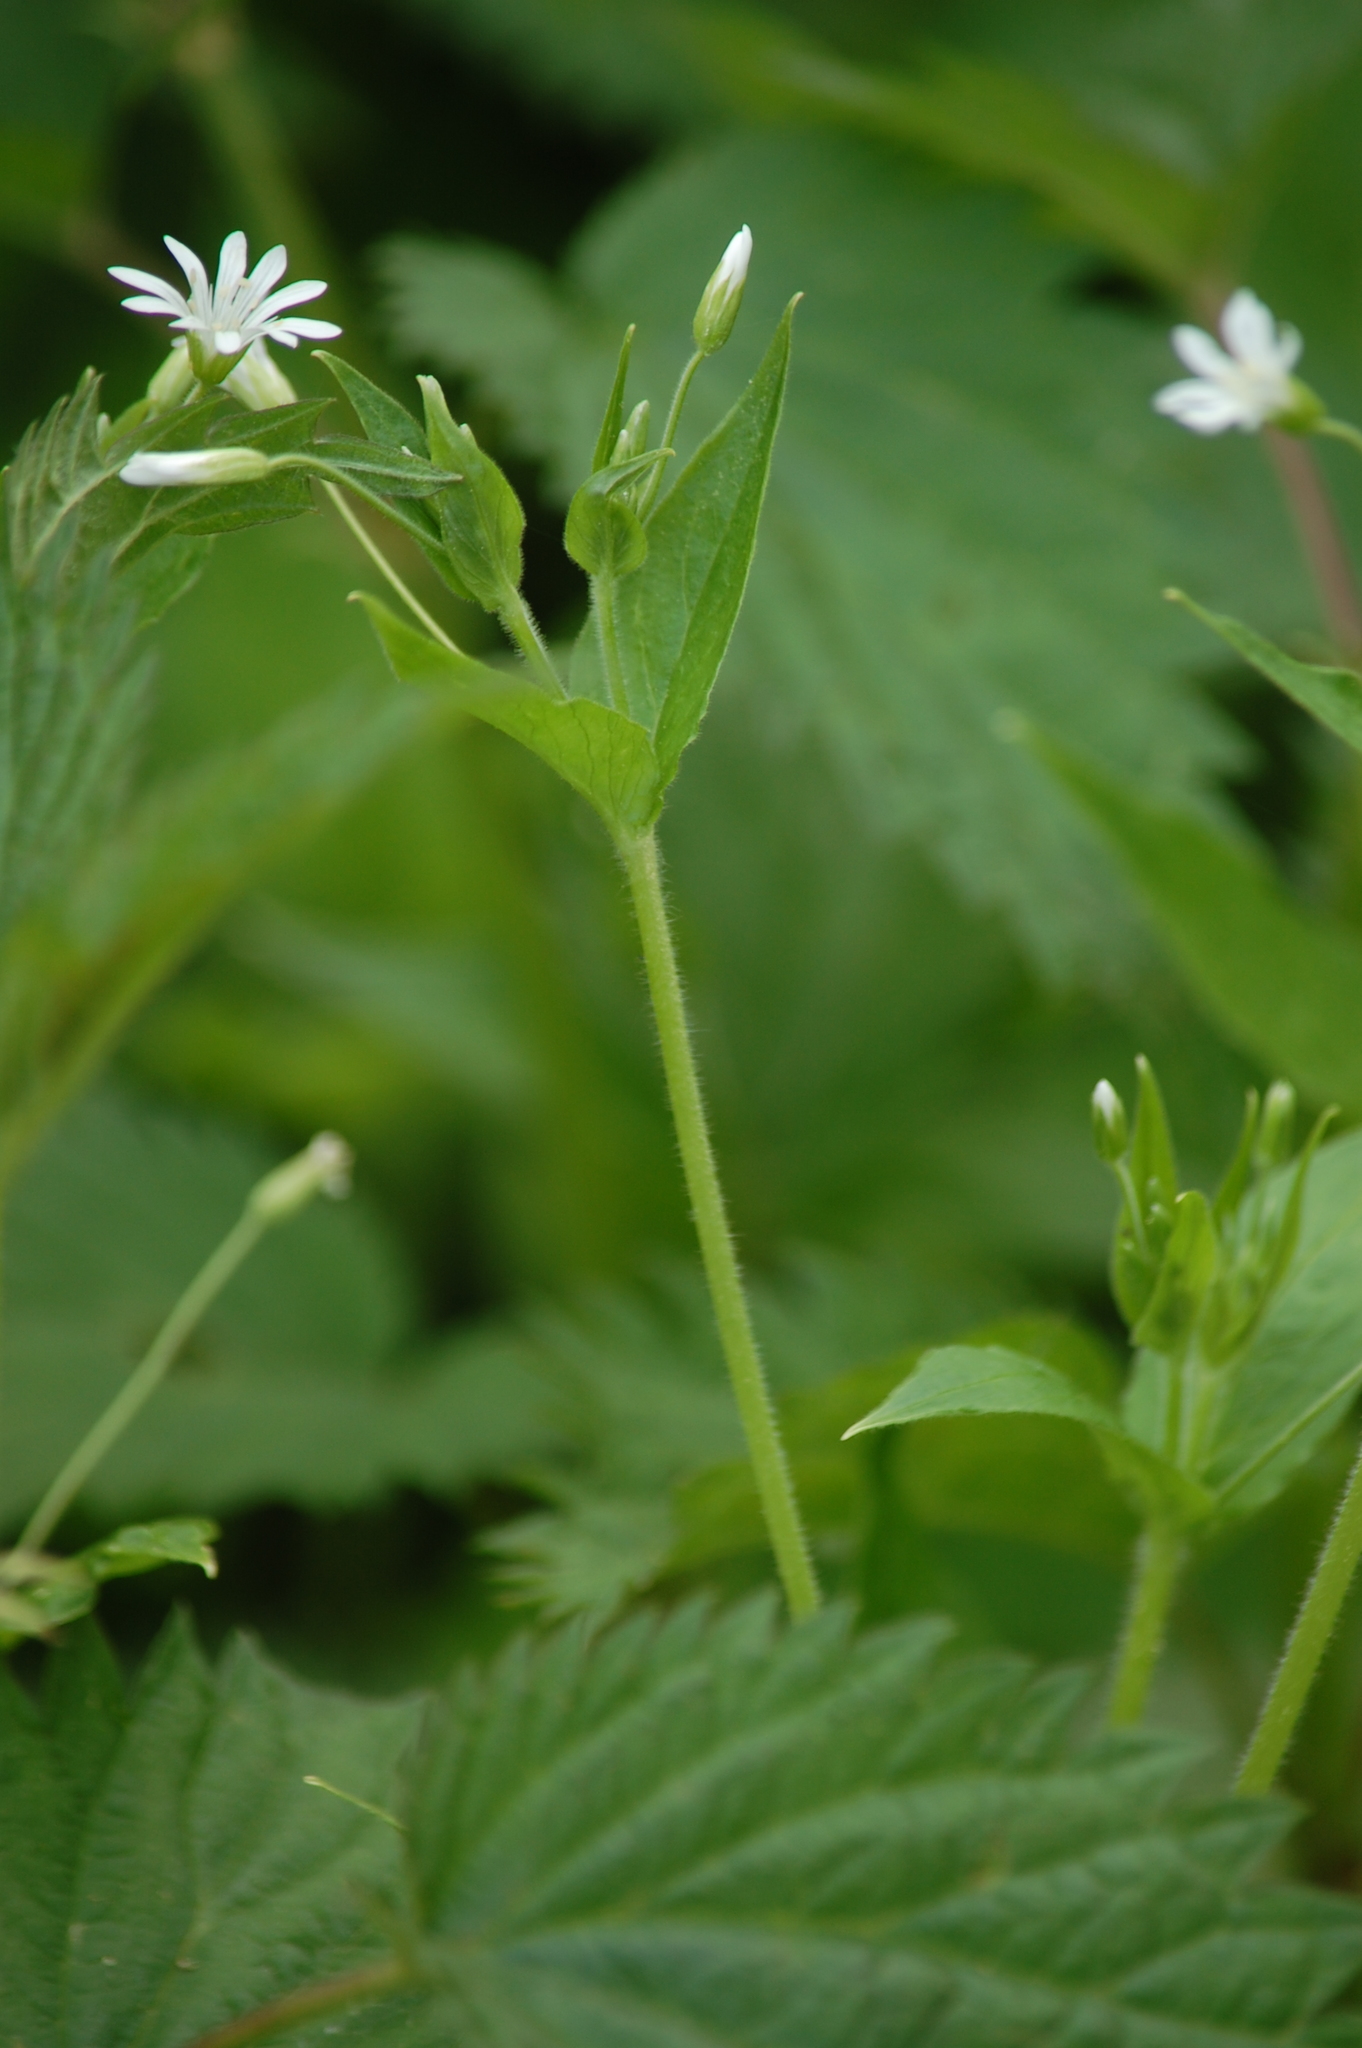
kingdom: Plantae
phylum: Tracheophyta
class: Magnoliopsida
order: Caryophyllales
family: Caryophyllaceae
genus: Stellaria
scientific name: Stellaria nemorum
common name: Wood stitchwort
